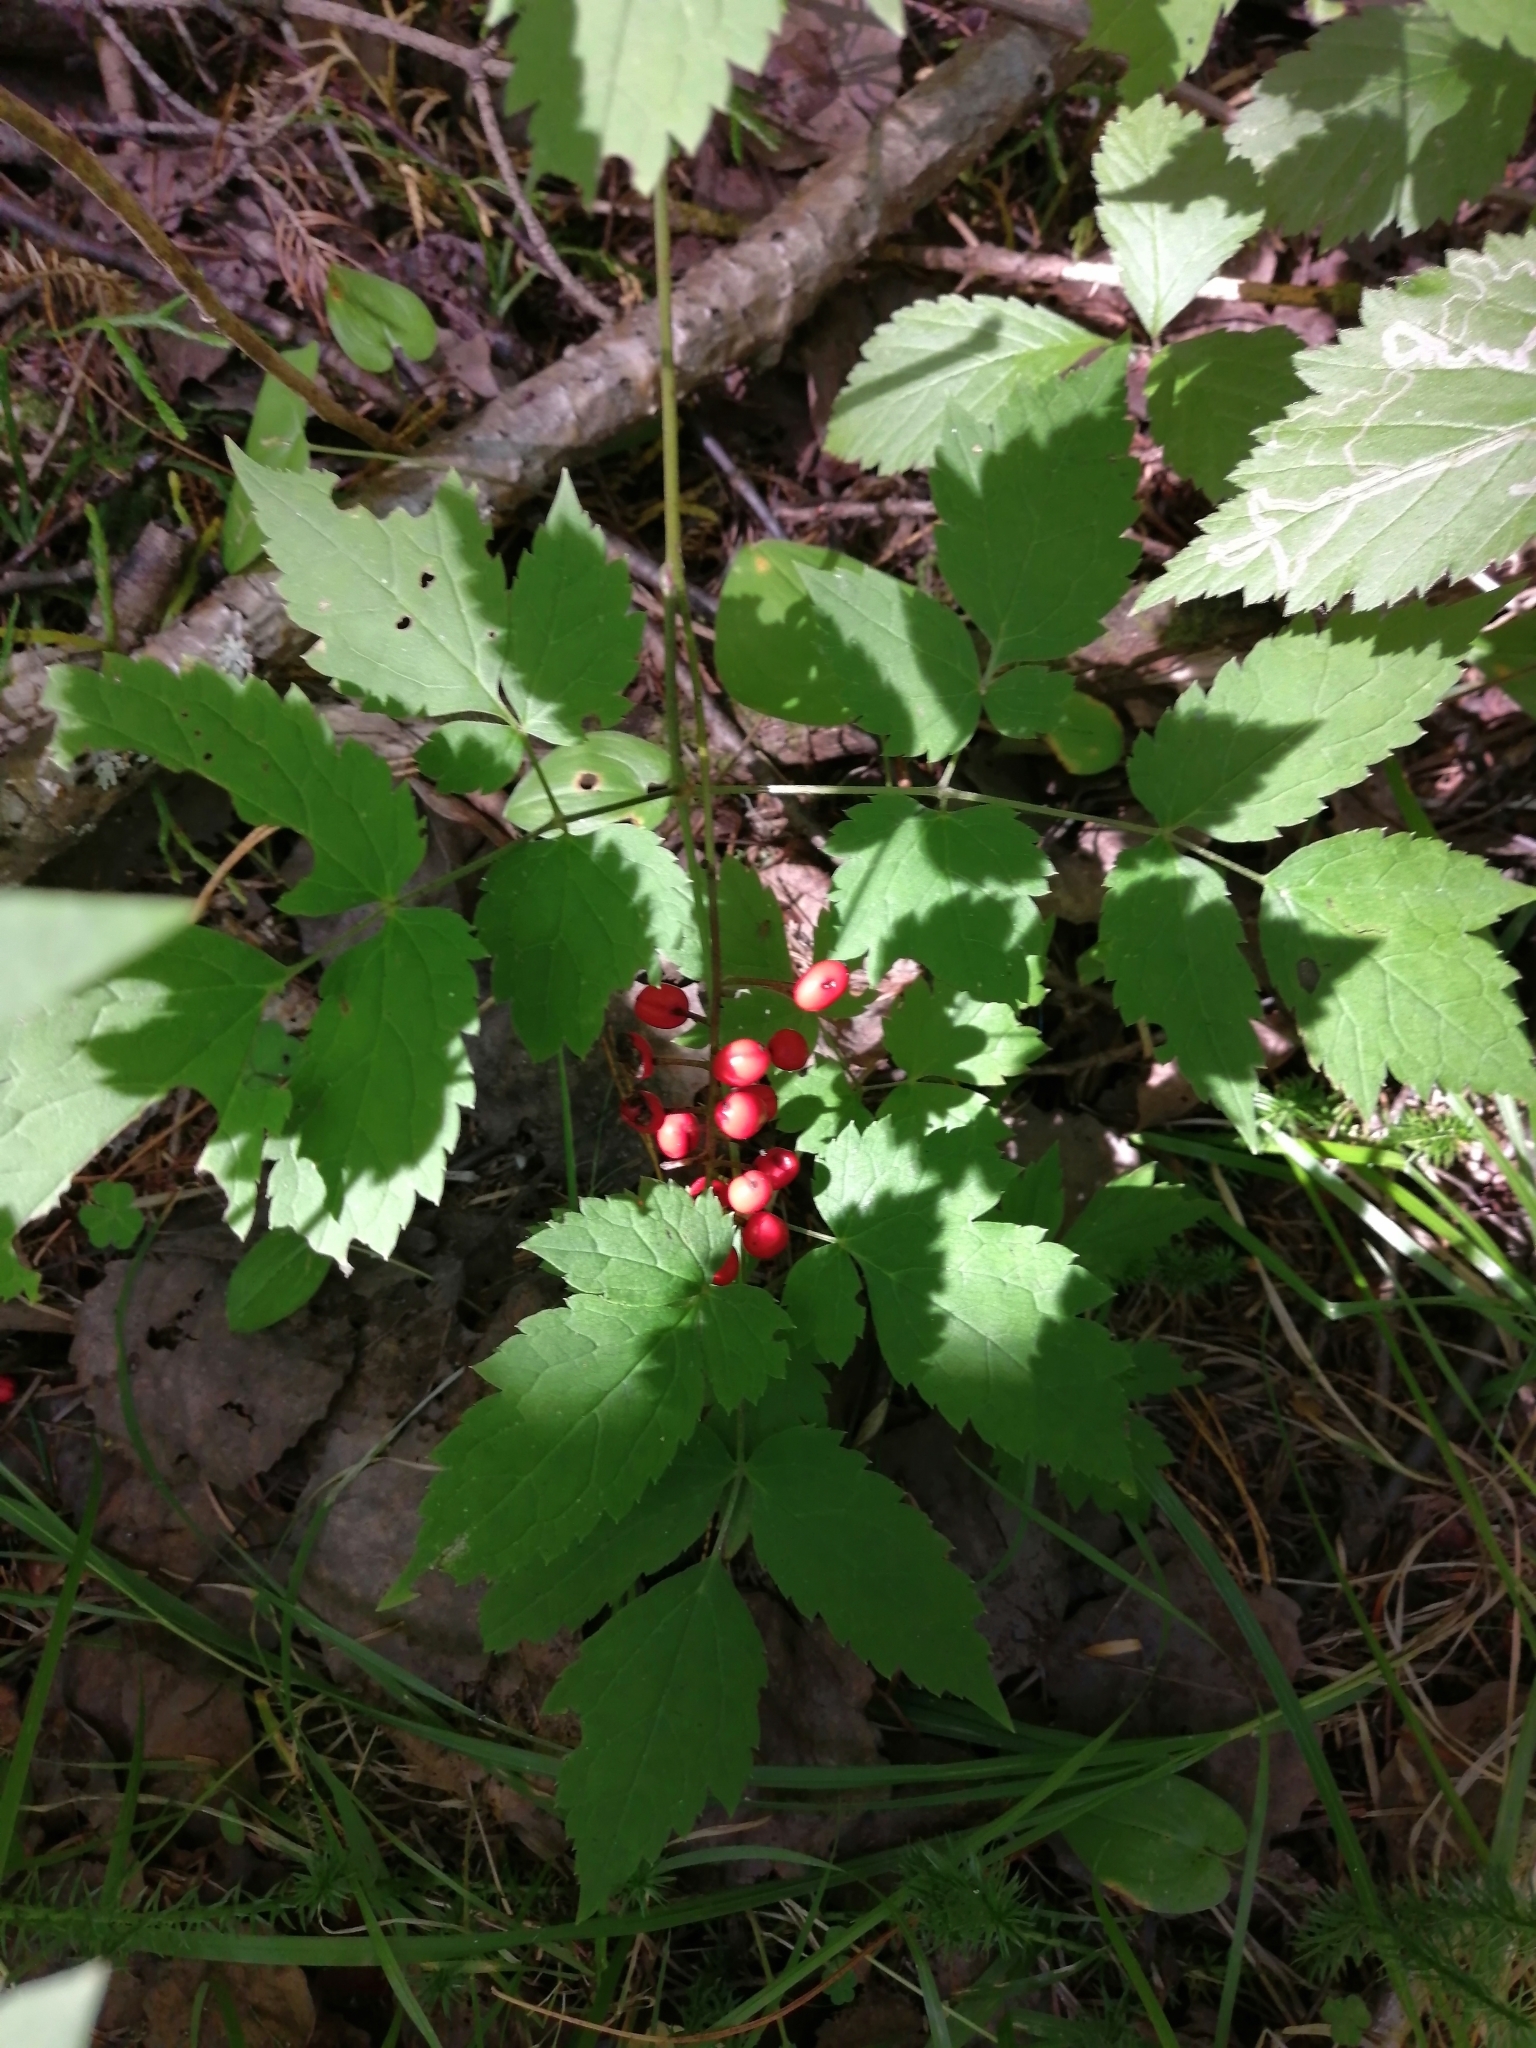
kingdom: Plantae
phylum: Tracheophyta
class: Magnoliopsida
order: Ranunculales
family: Ranunculaceae
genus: Actaea
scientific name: Actaea erythrocarpa
